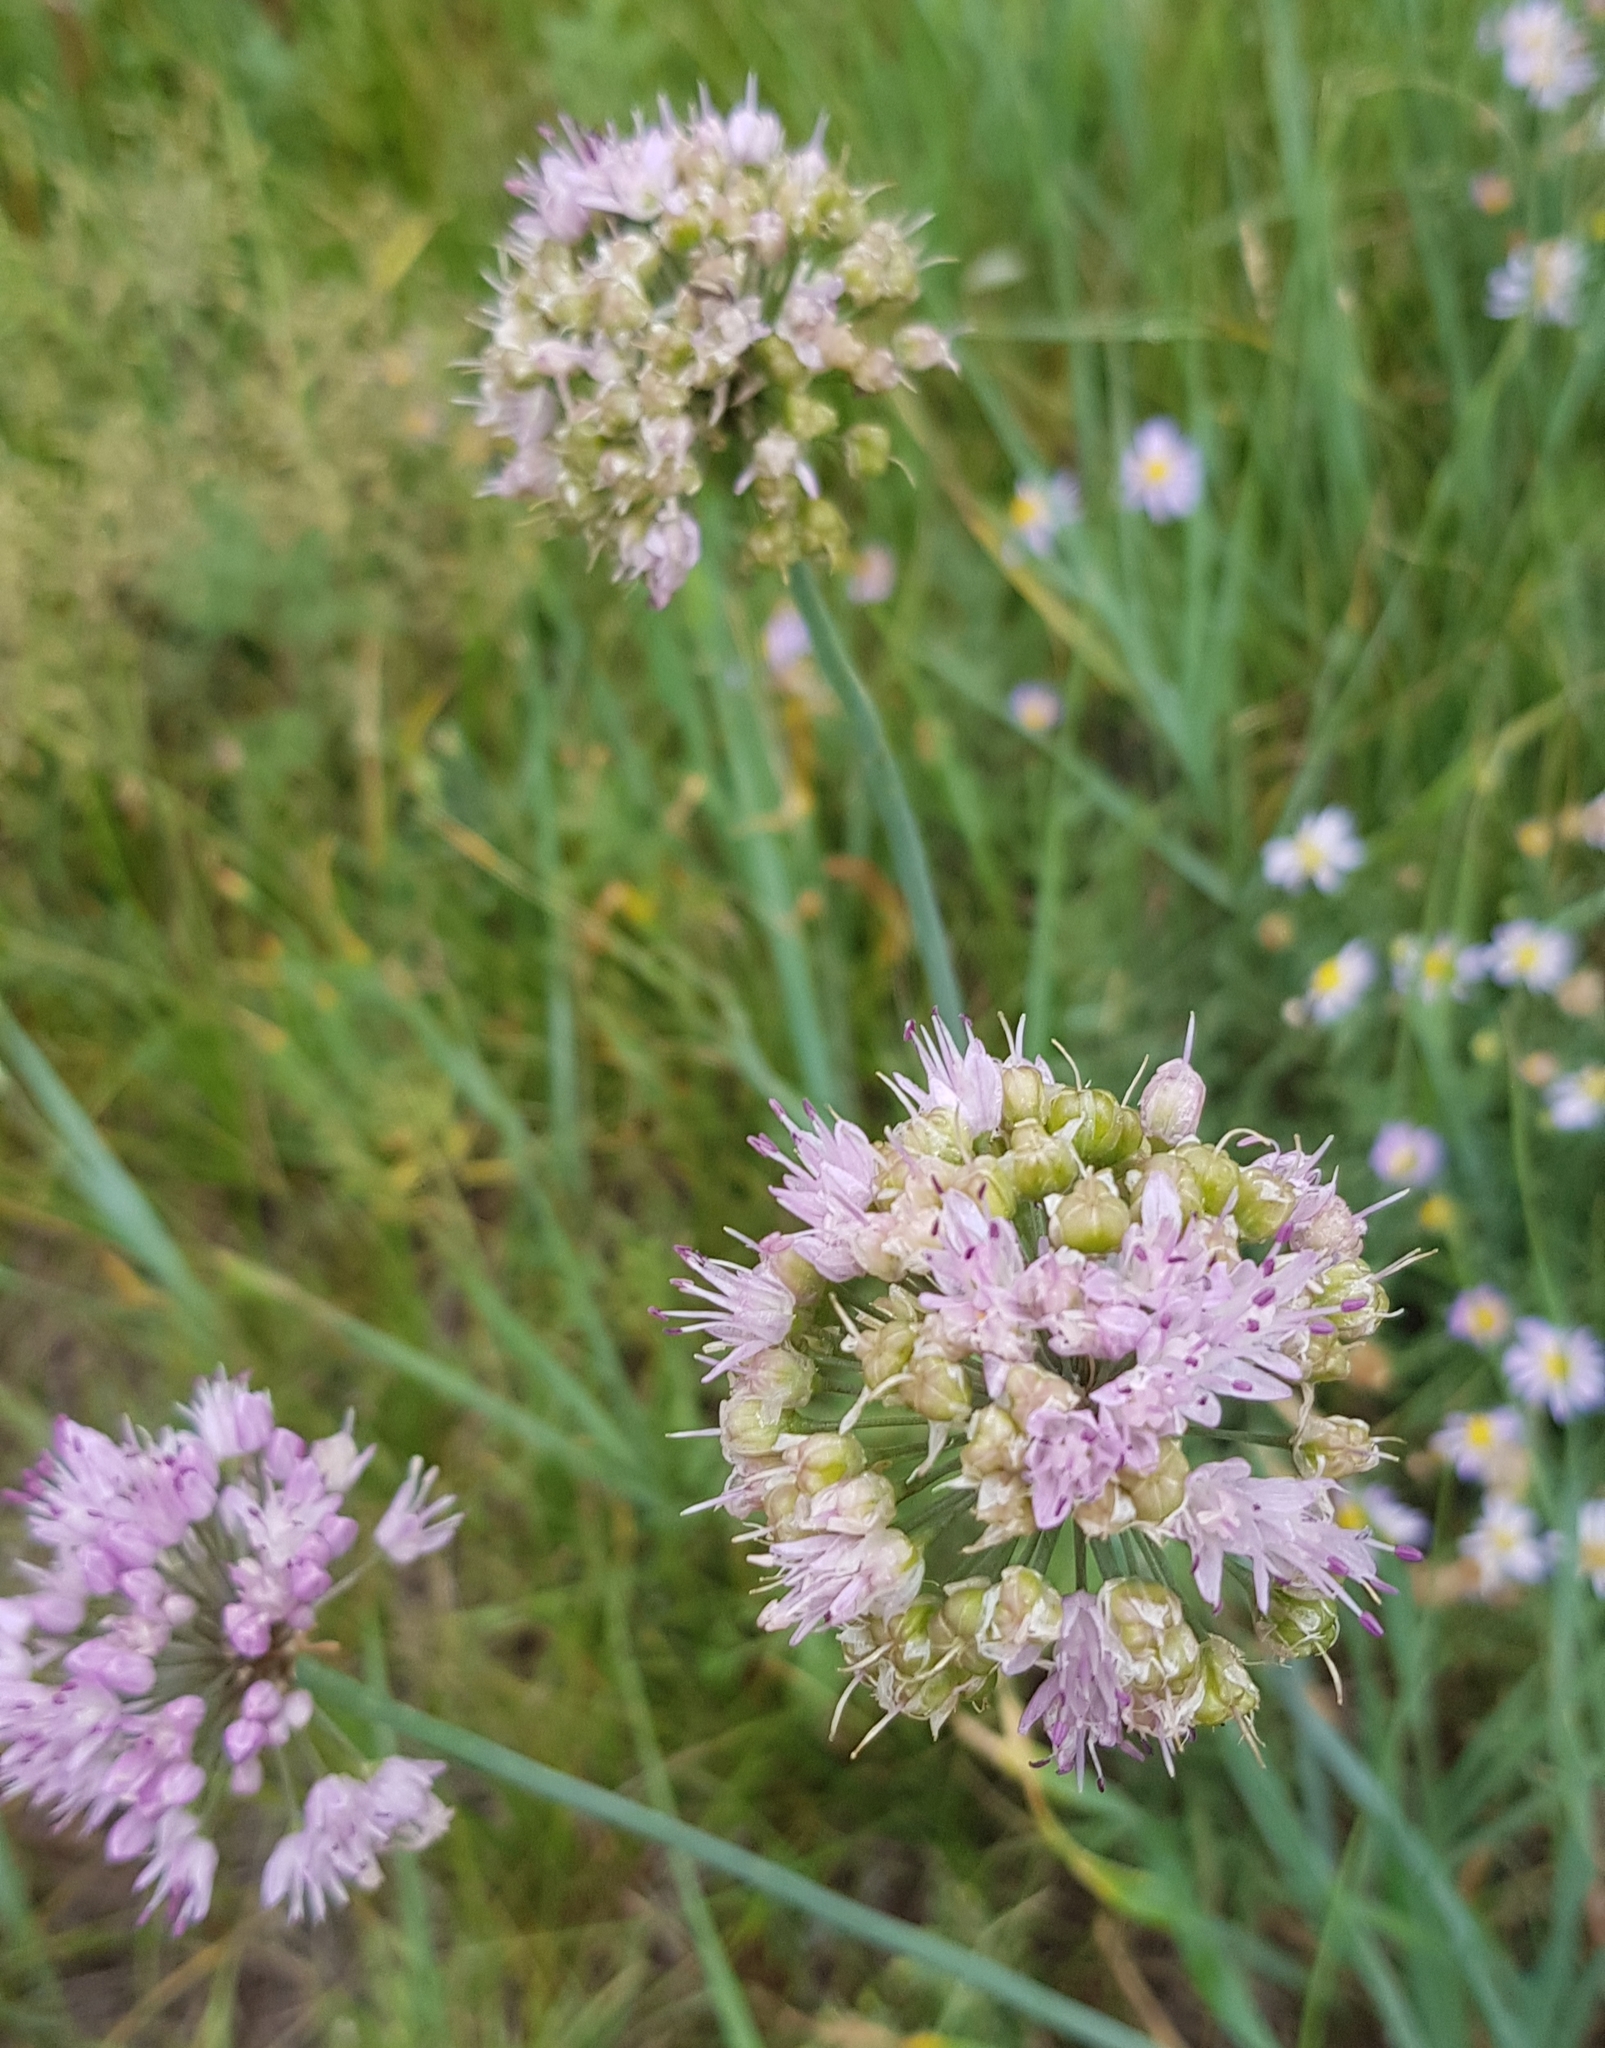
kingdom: Plantae
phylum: Tracheophyta
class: Liliopsida
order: Asparagales
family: Amaryllidaceae
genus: Allium
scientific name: Allium senescens
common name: German garlic
